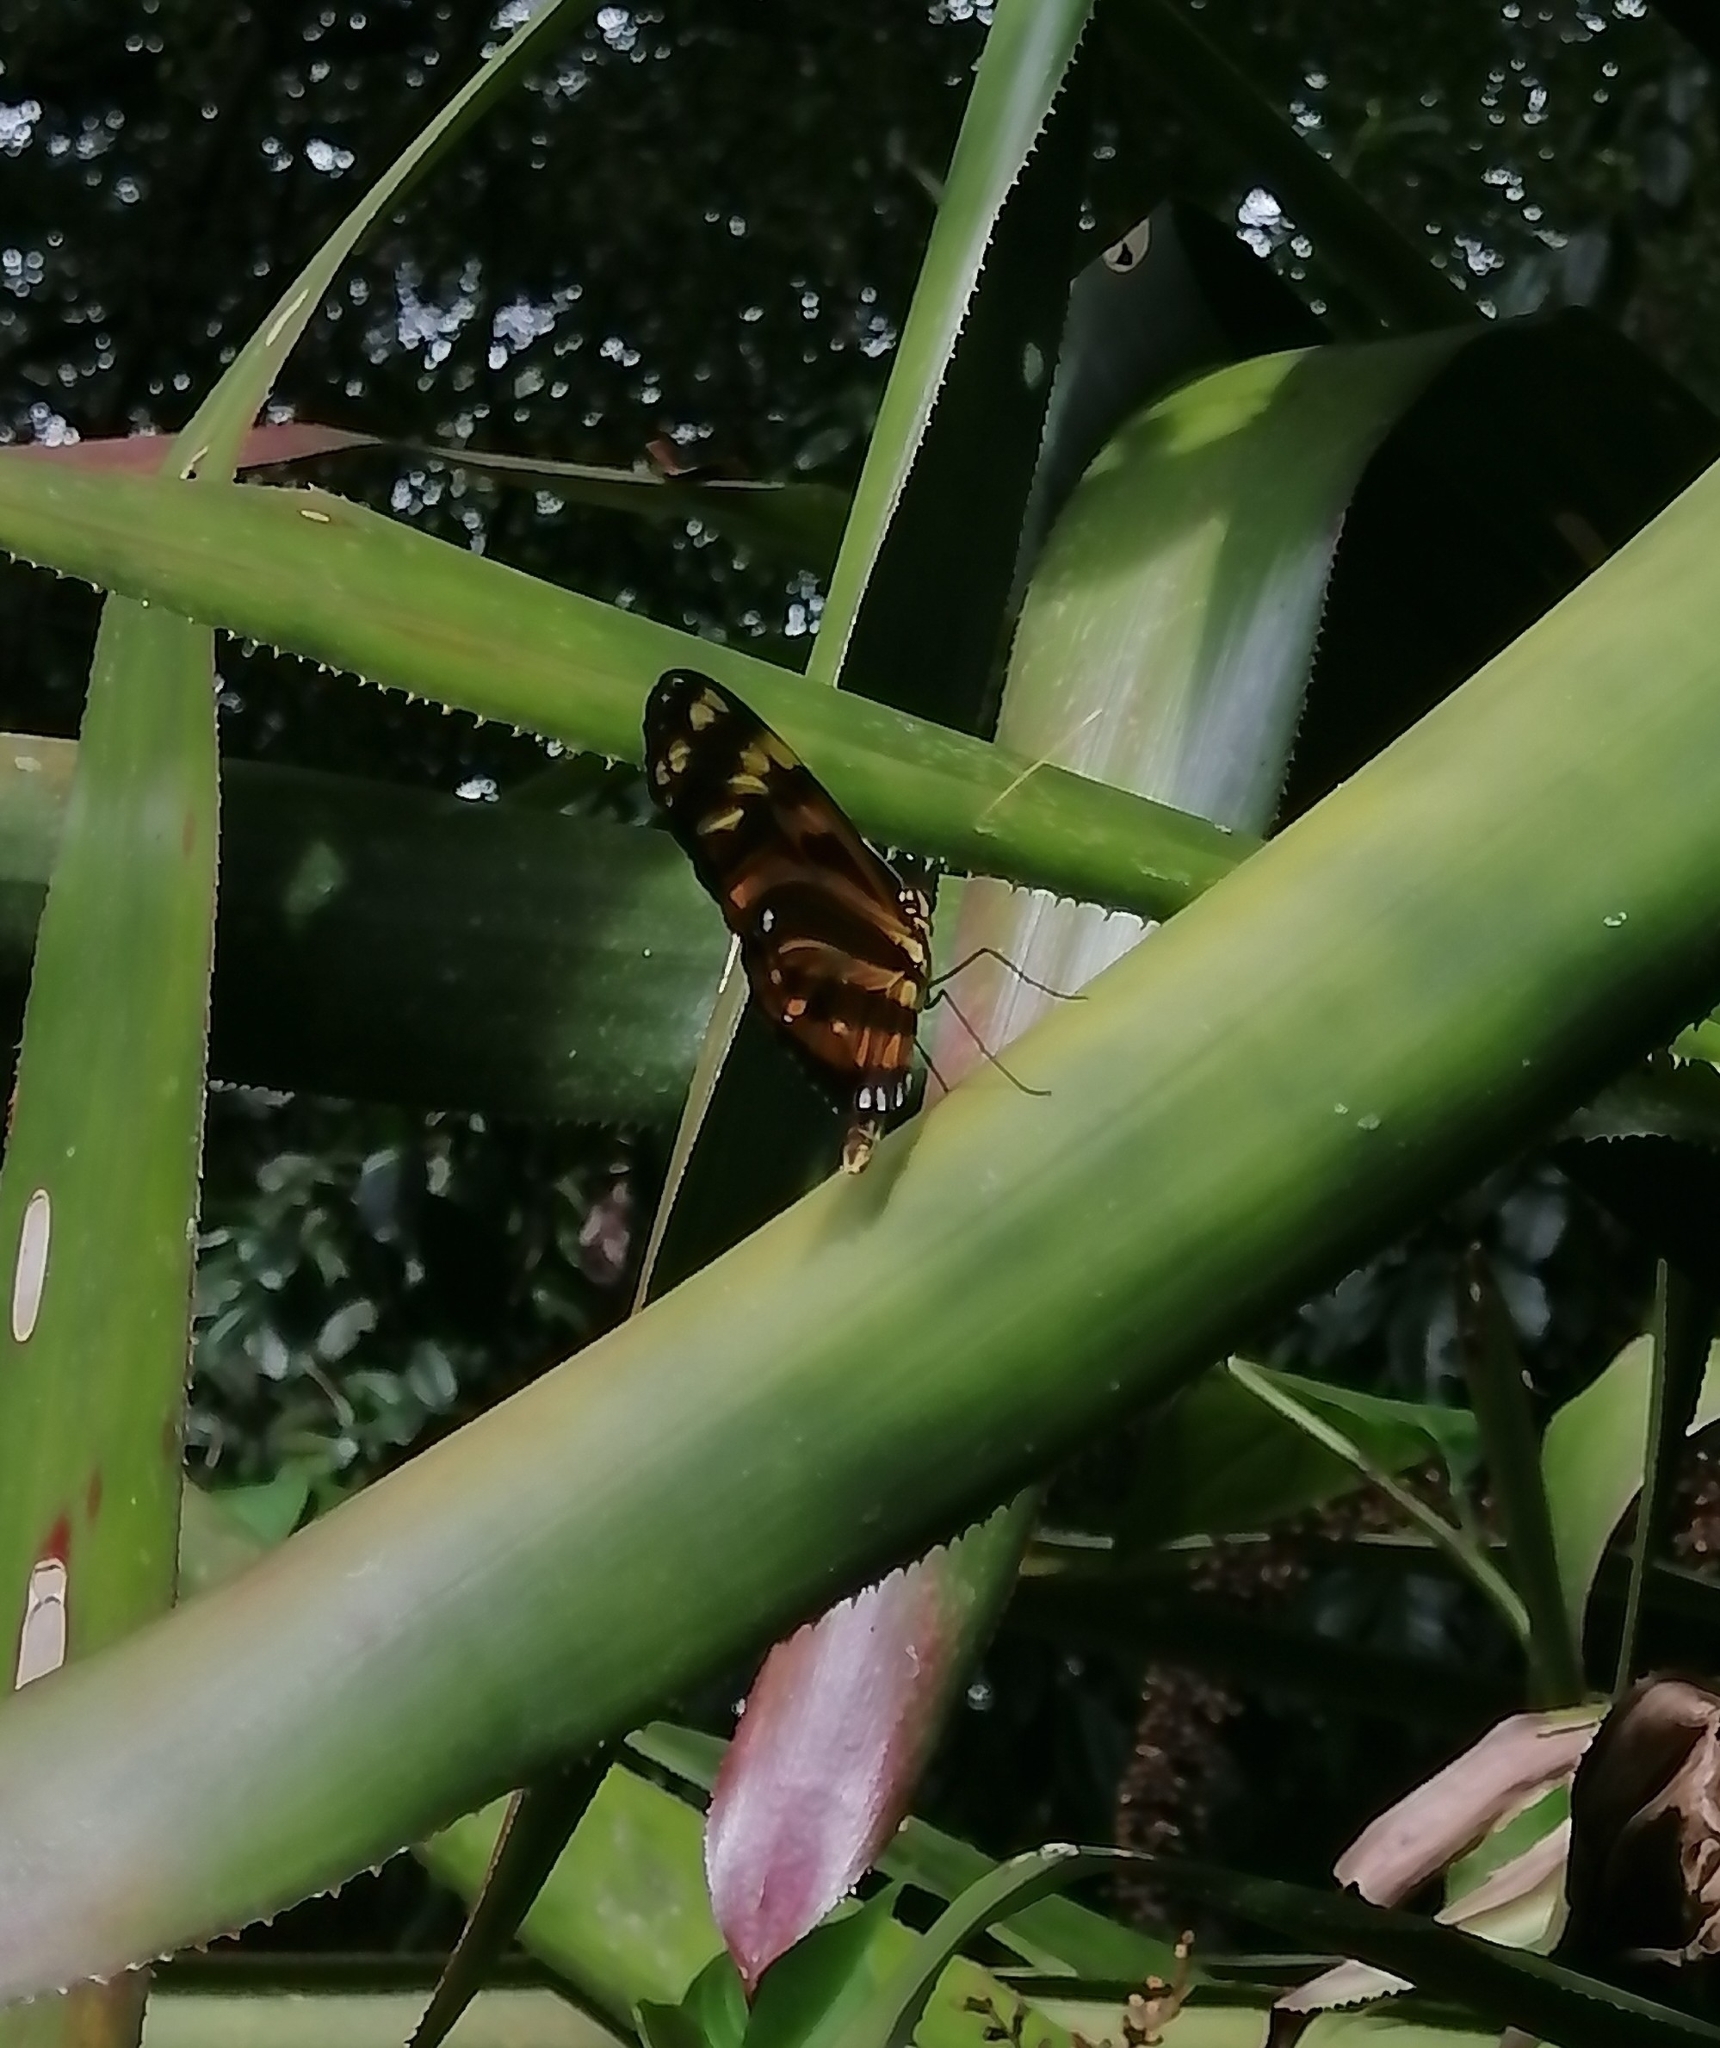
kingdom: Animalia
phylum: Arthropoda
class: Insecta
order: Lepidoptera
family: Nymphalidae
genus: Heliconius
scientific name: Heliconius ismenius
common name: Ismenius tiger
